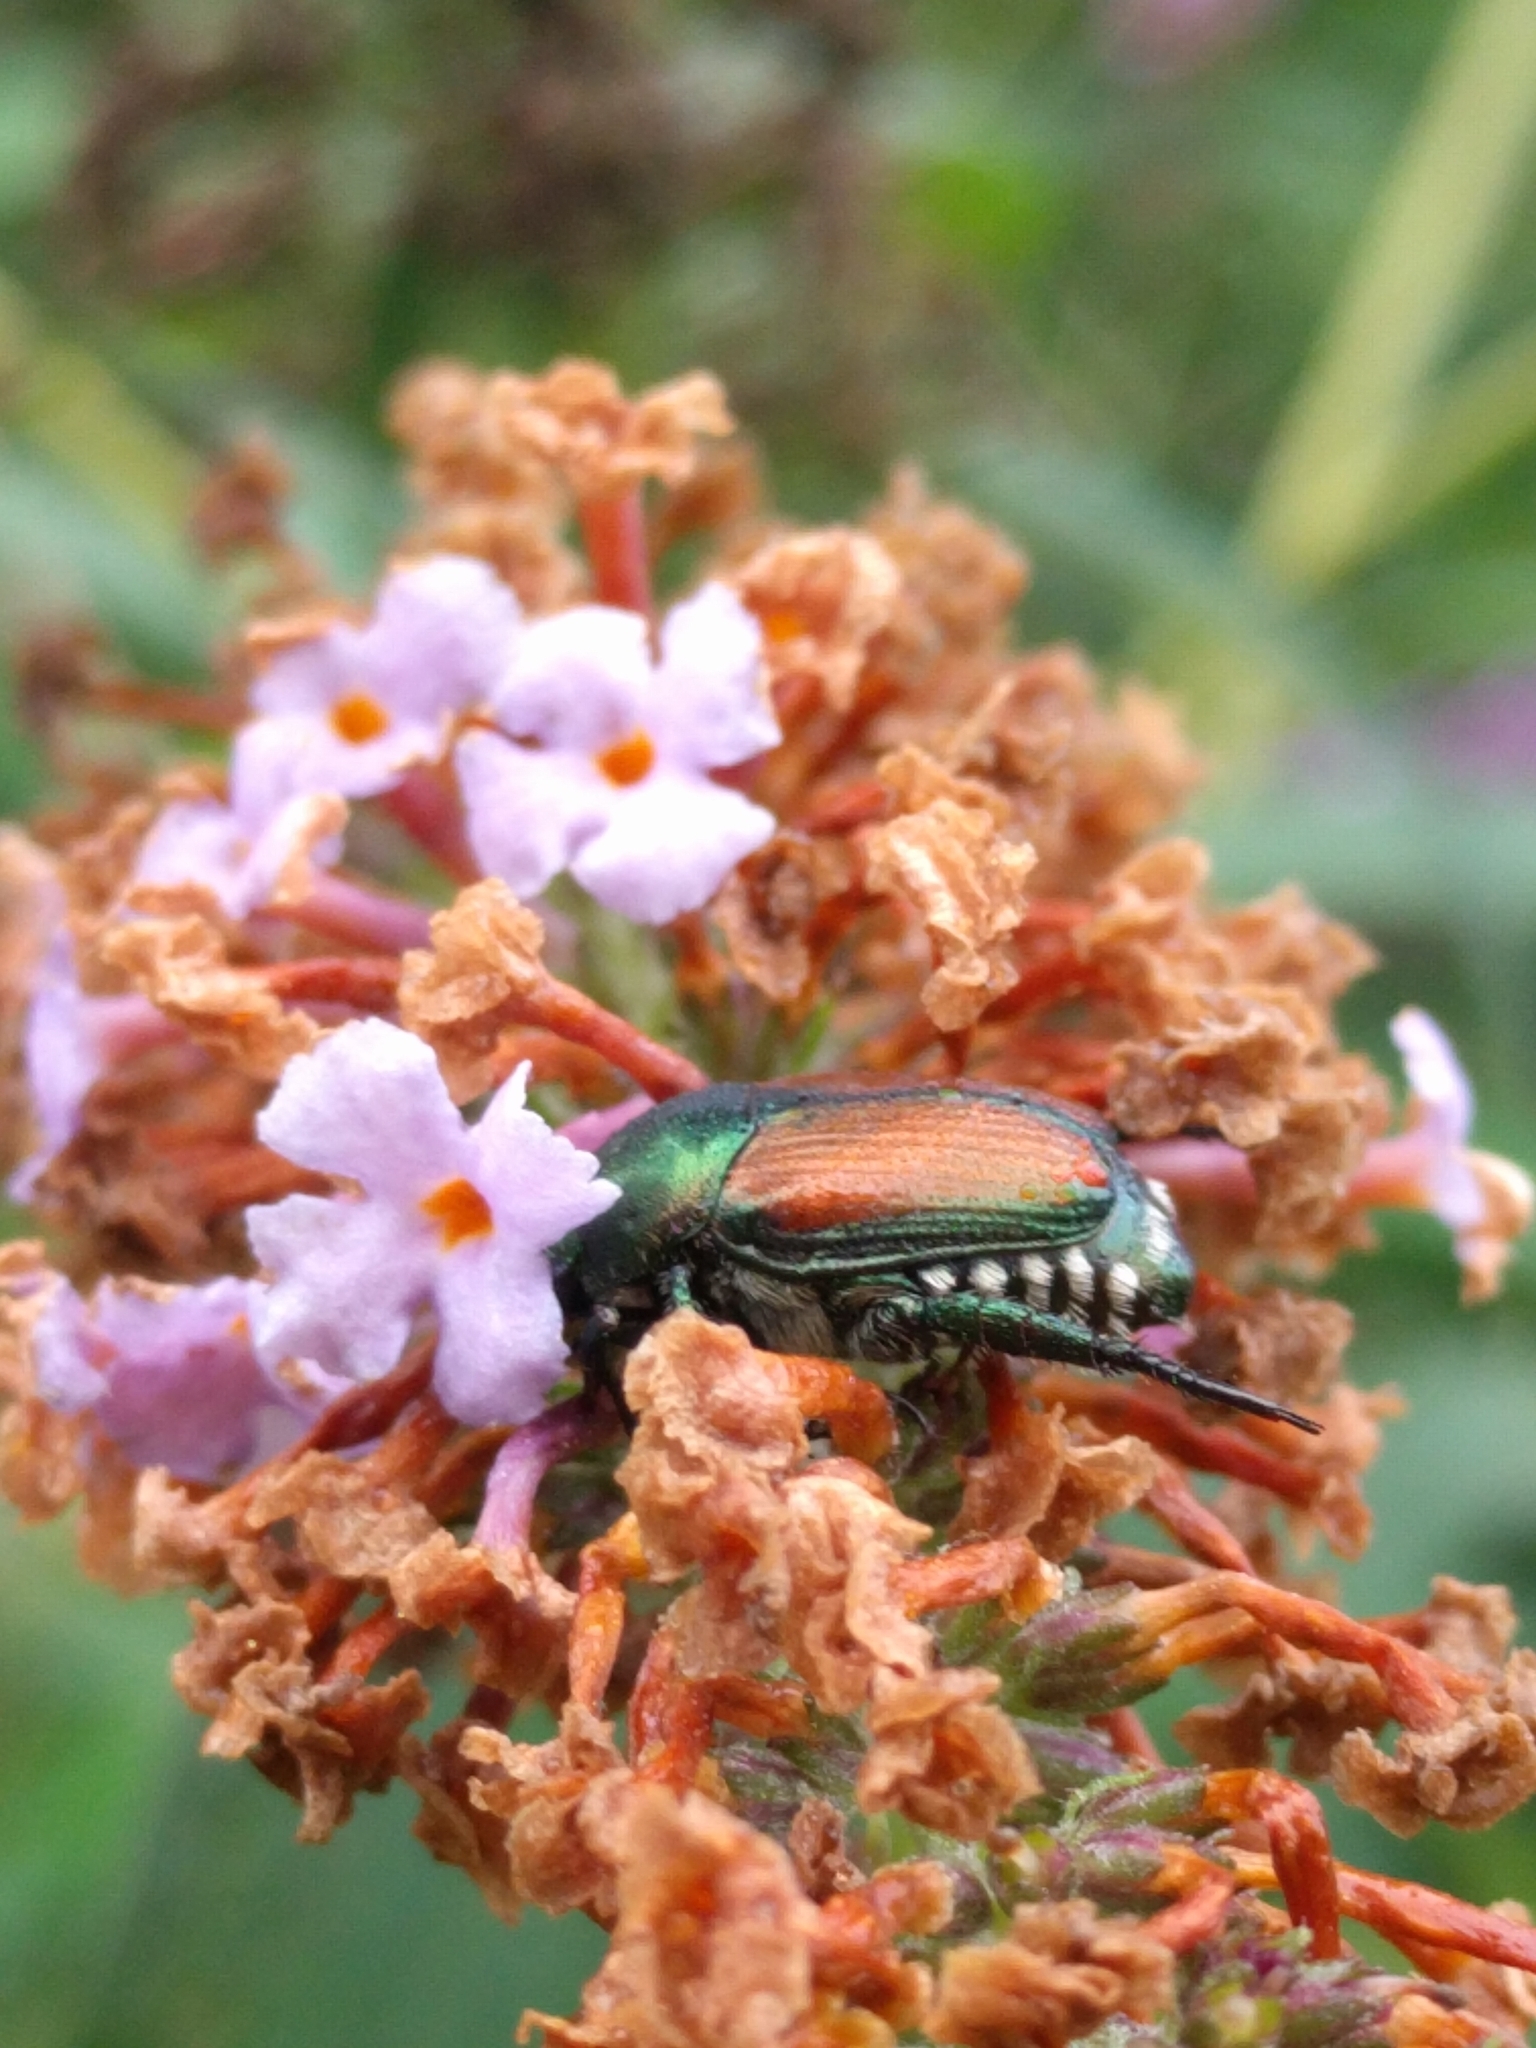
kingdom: Animalia
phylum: Arthropoda
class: Insecta
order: Coleoptera
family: Scarabaeidae
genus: Popillia
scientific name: Popillia japonica
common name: Japanese beetle
